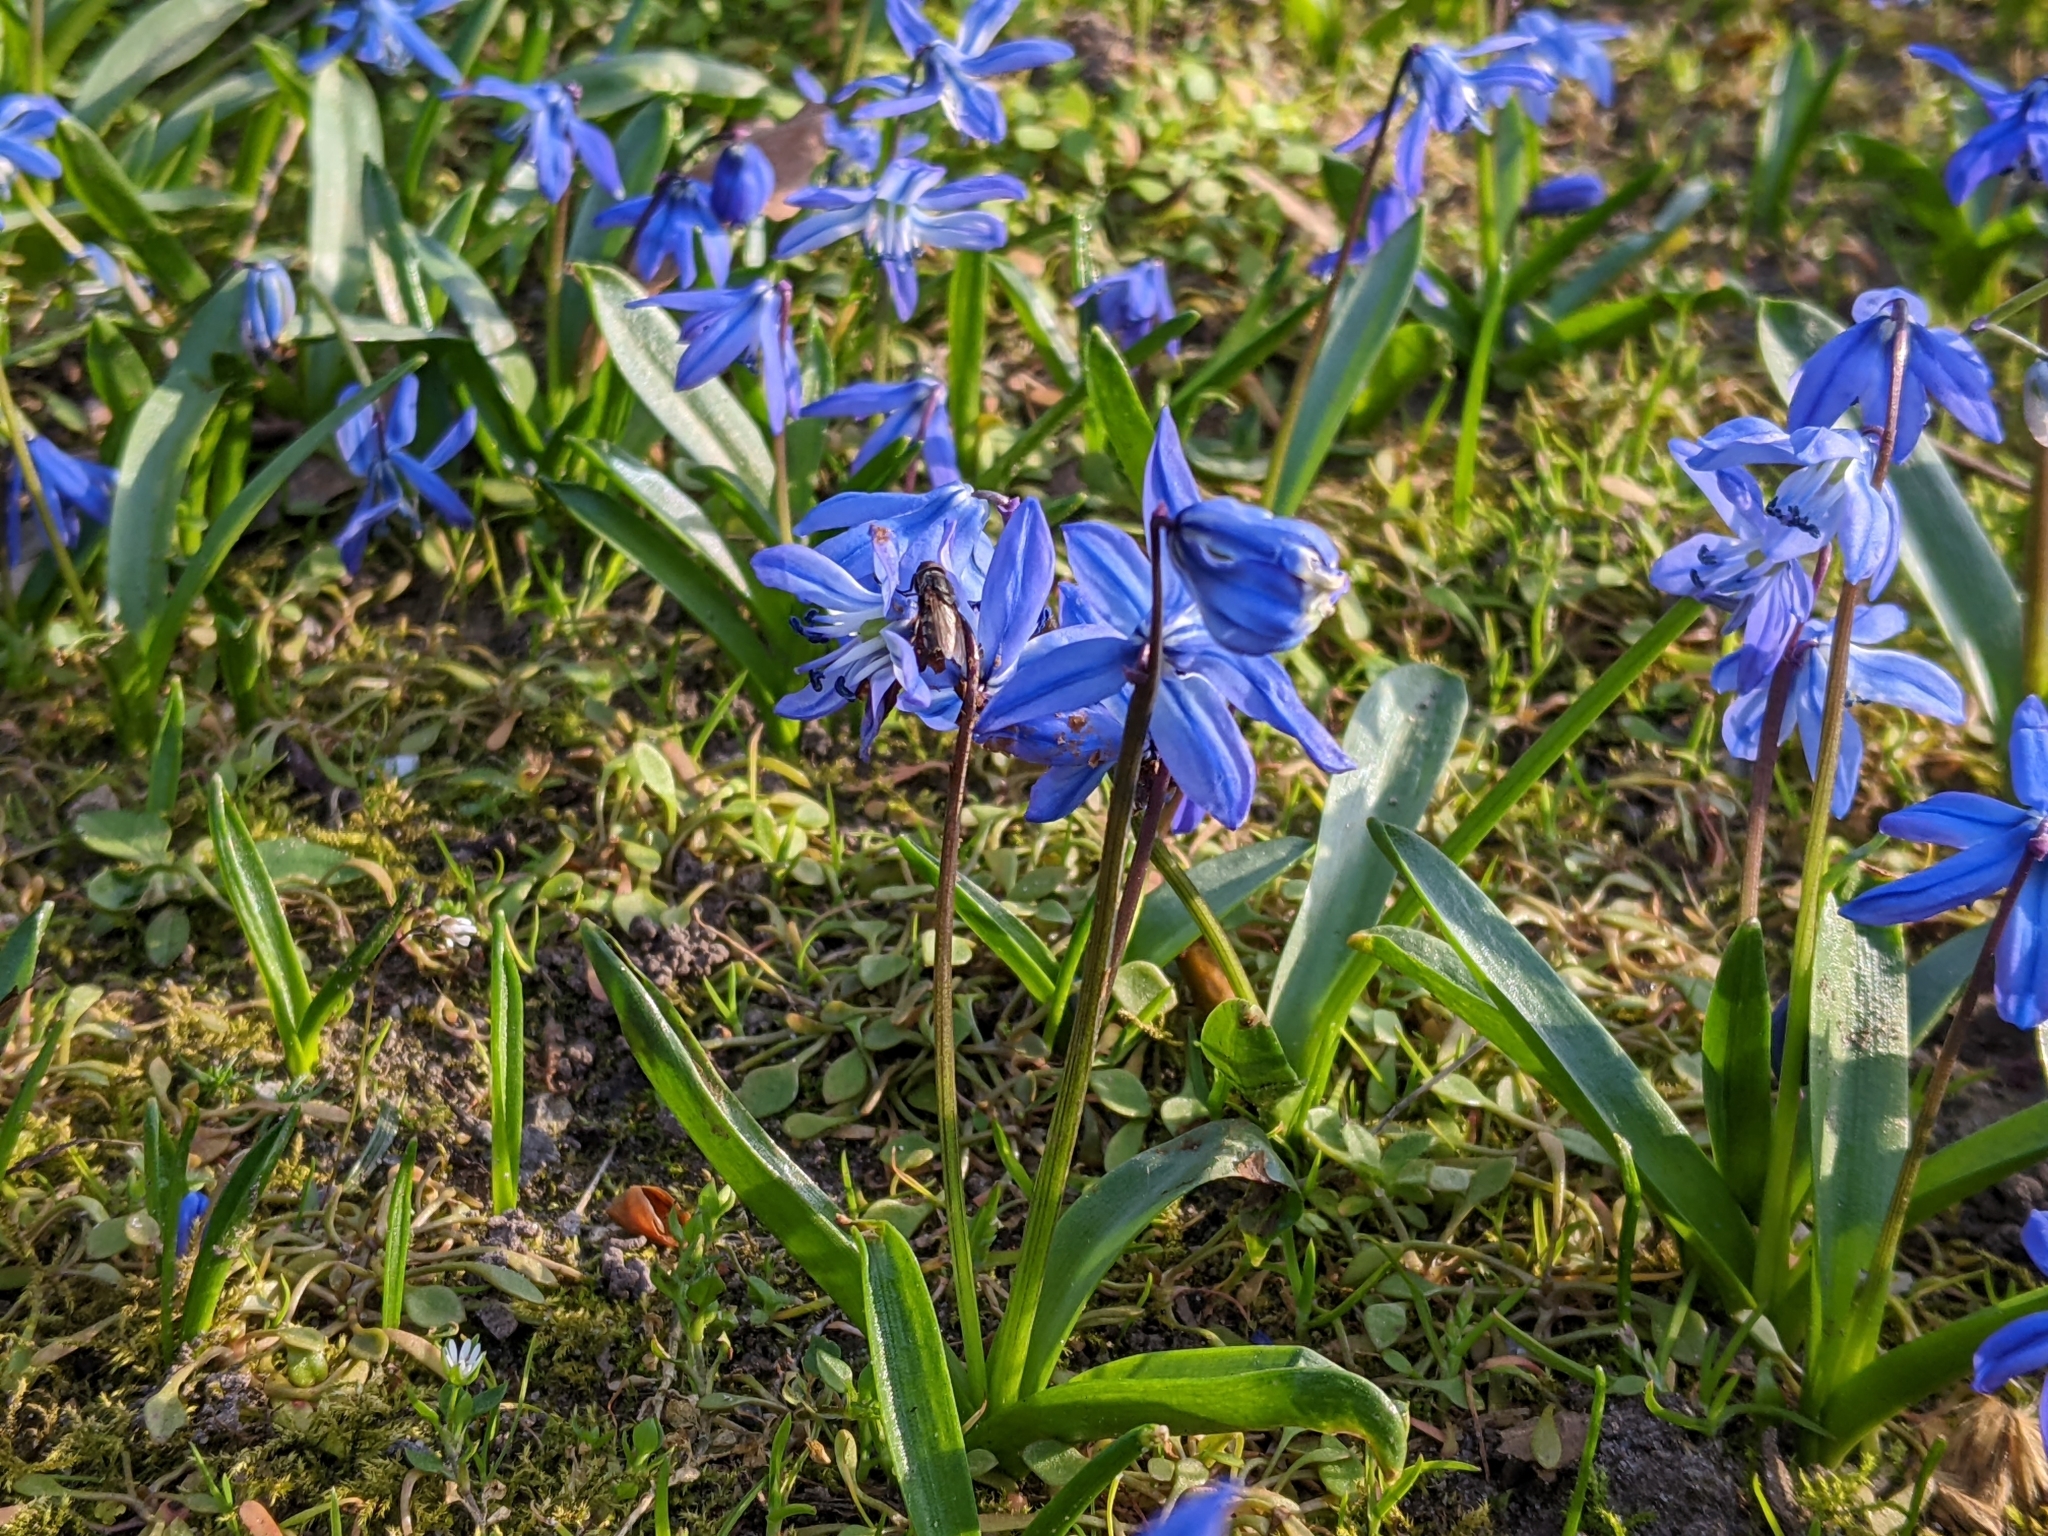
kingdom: Plantae
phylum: Tracheophyta
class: Liliopsida
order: Asparagales
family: Asparagaceae
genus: Scilla
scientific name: Scilla siberica
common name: Siberian squill
